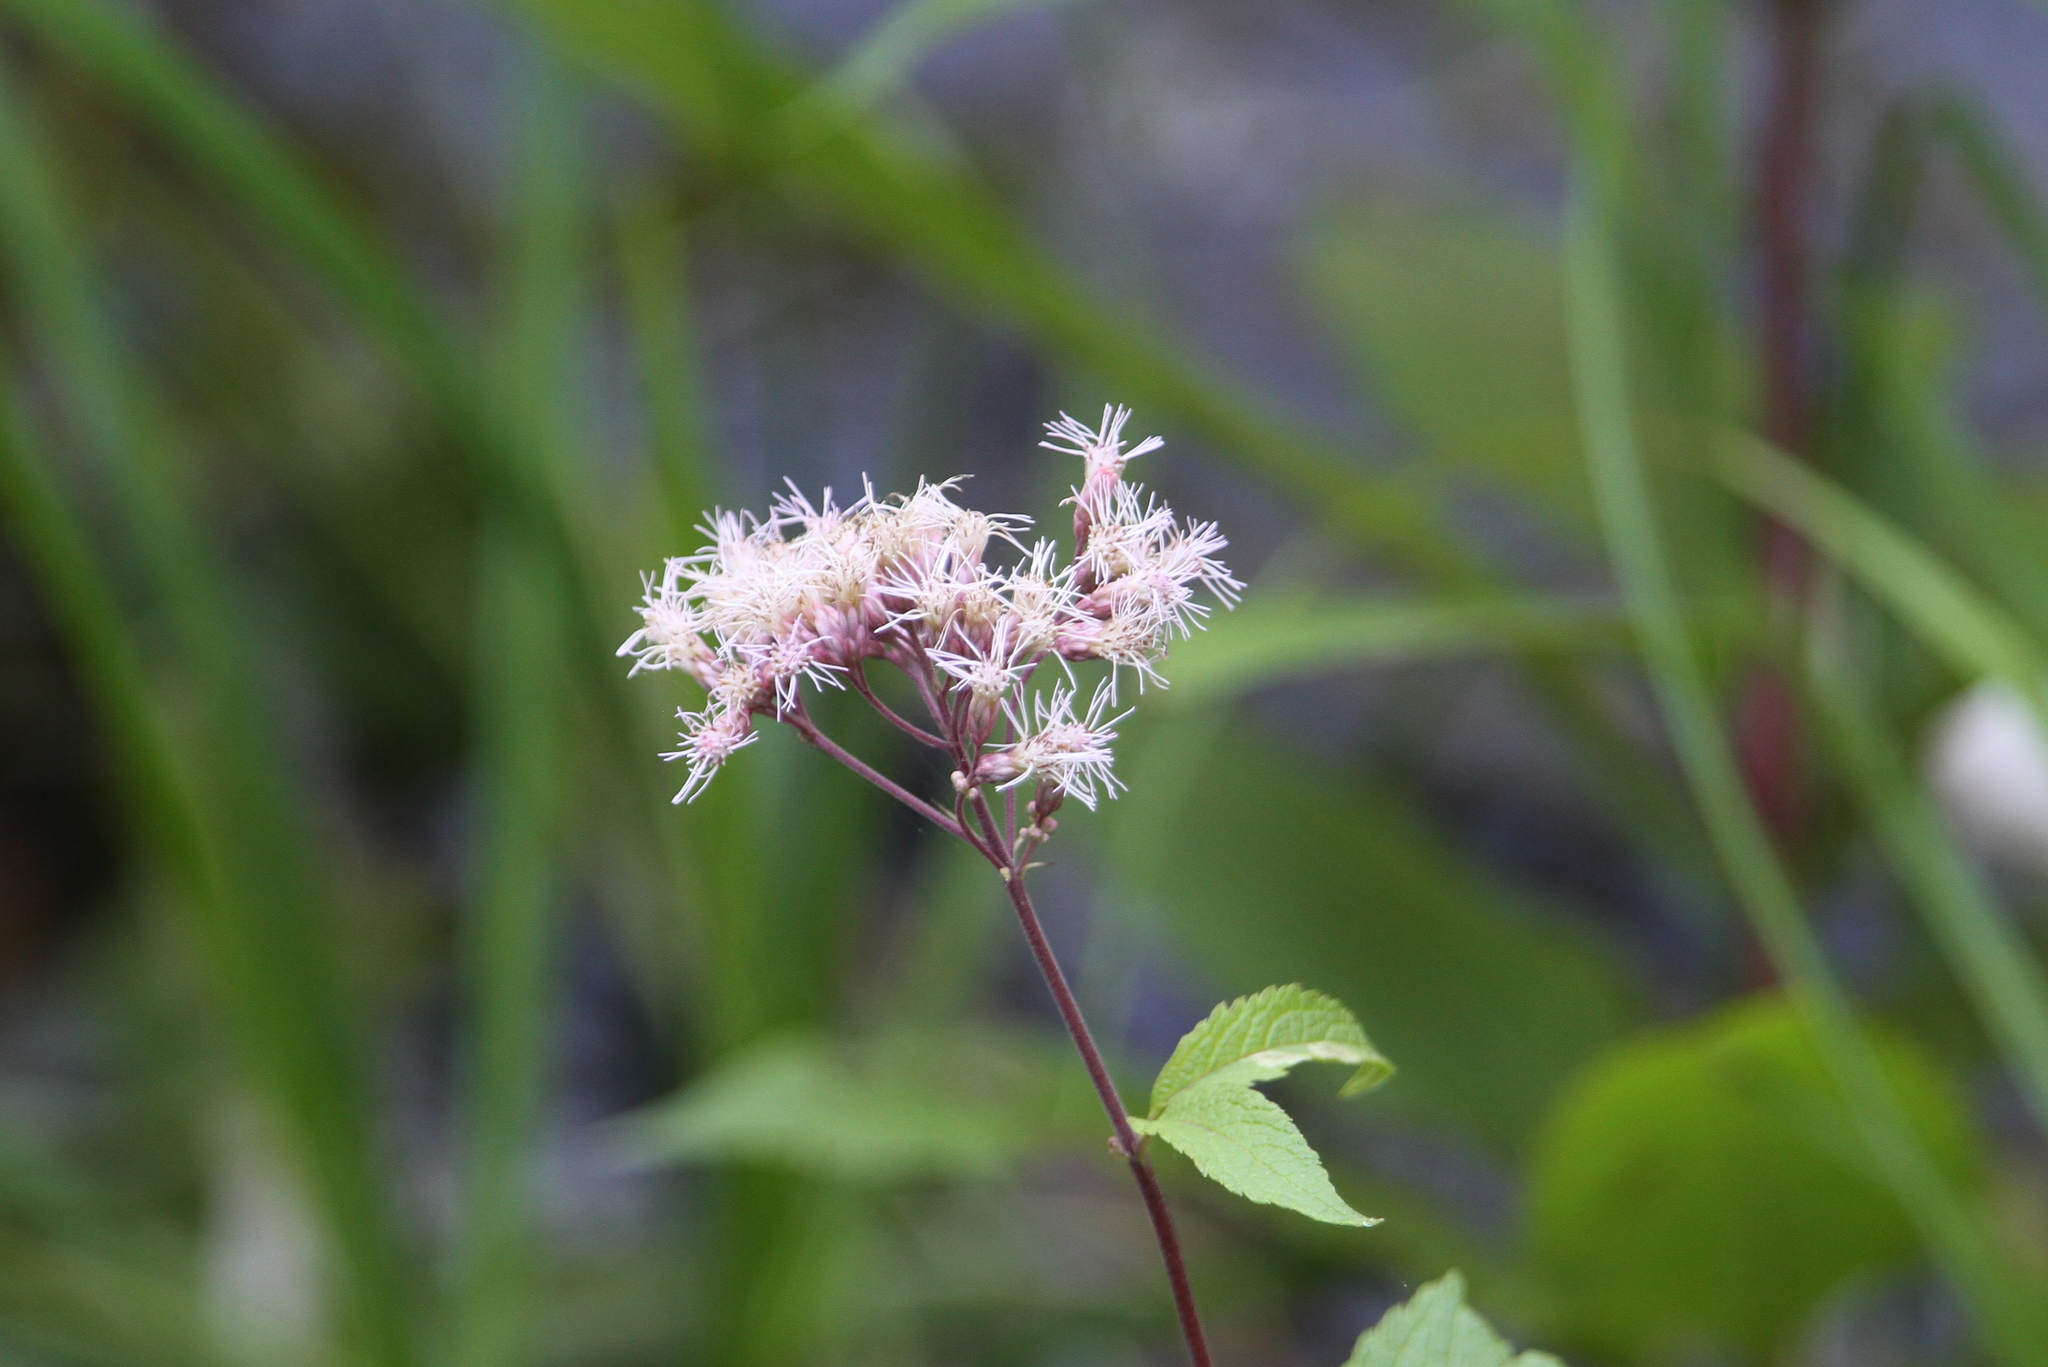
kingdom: Plantae
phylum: Tracheophyta
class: Magnoliopsida
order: Asterales
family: Asteraceae
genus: Eutrochium
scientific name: Eutrochium maculatum
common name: Spotted joe pye weed
